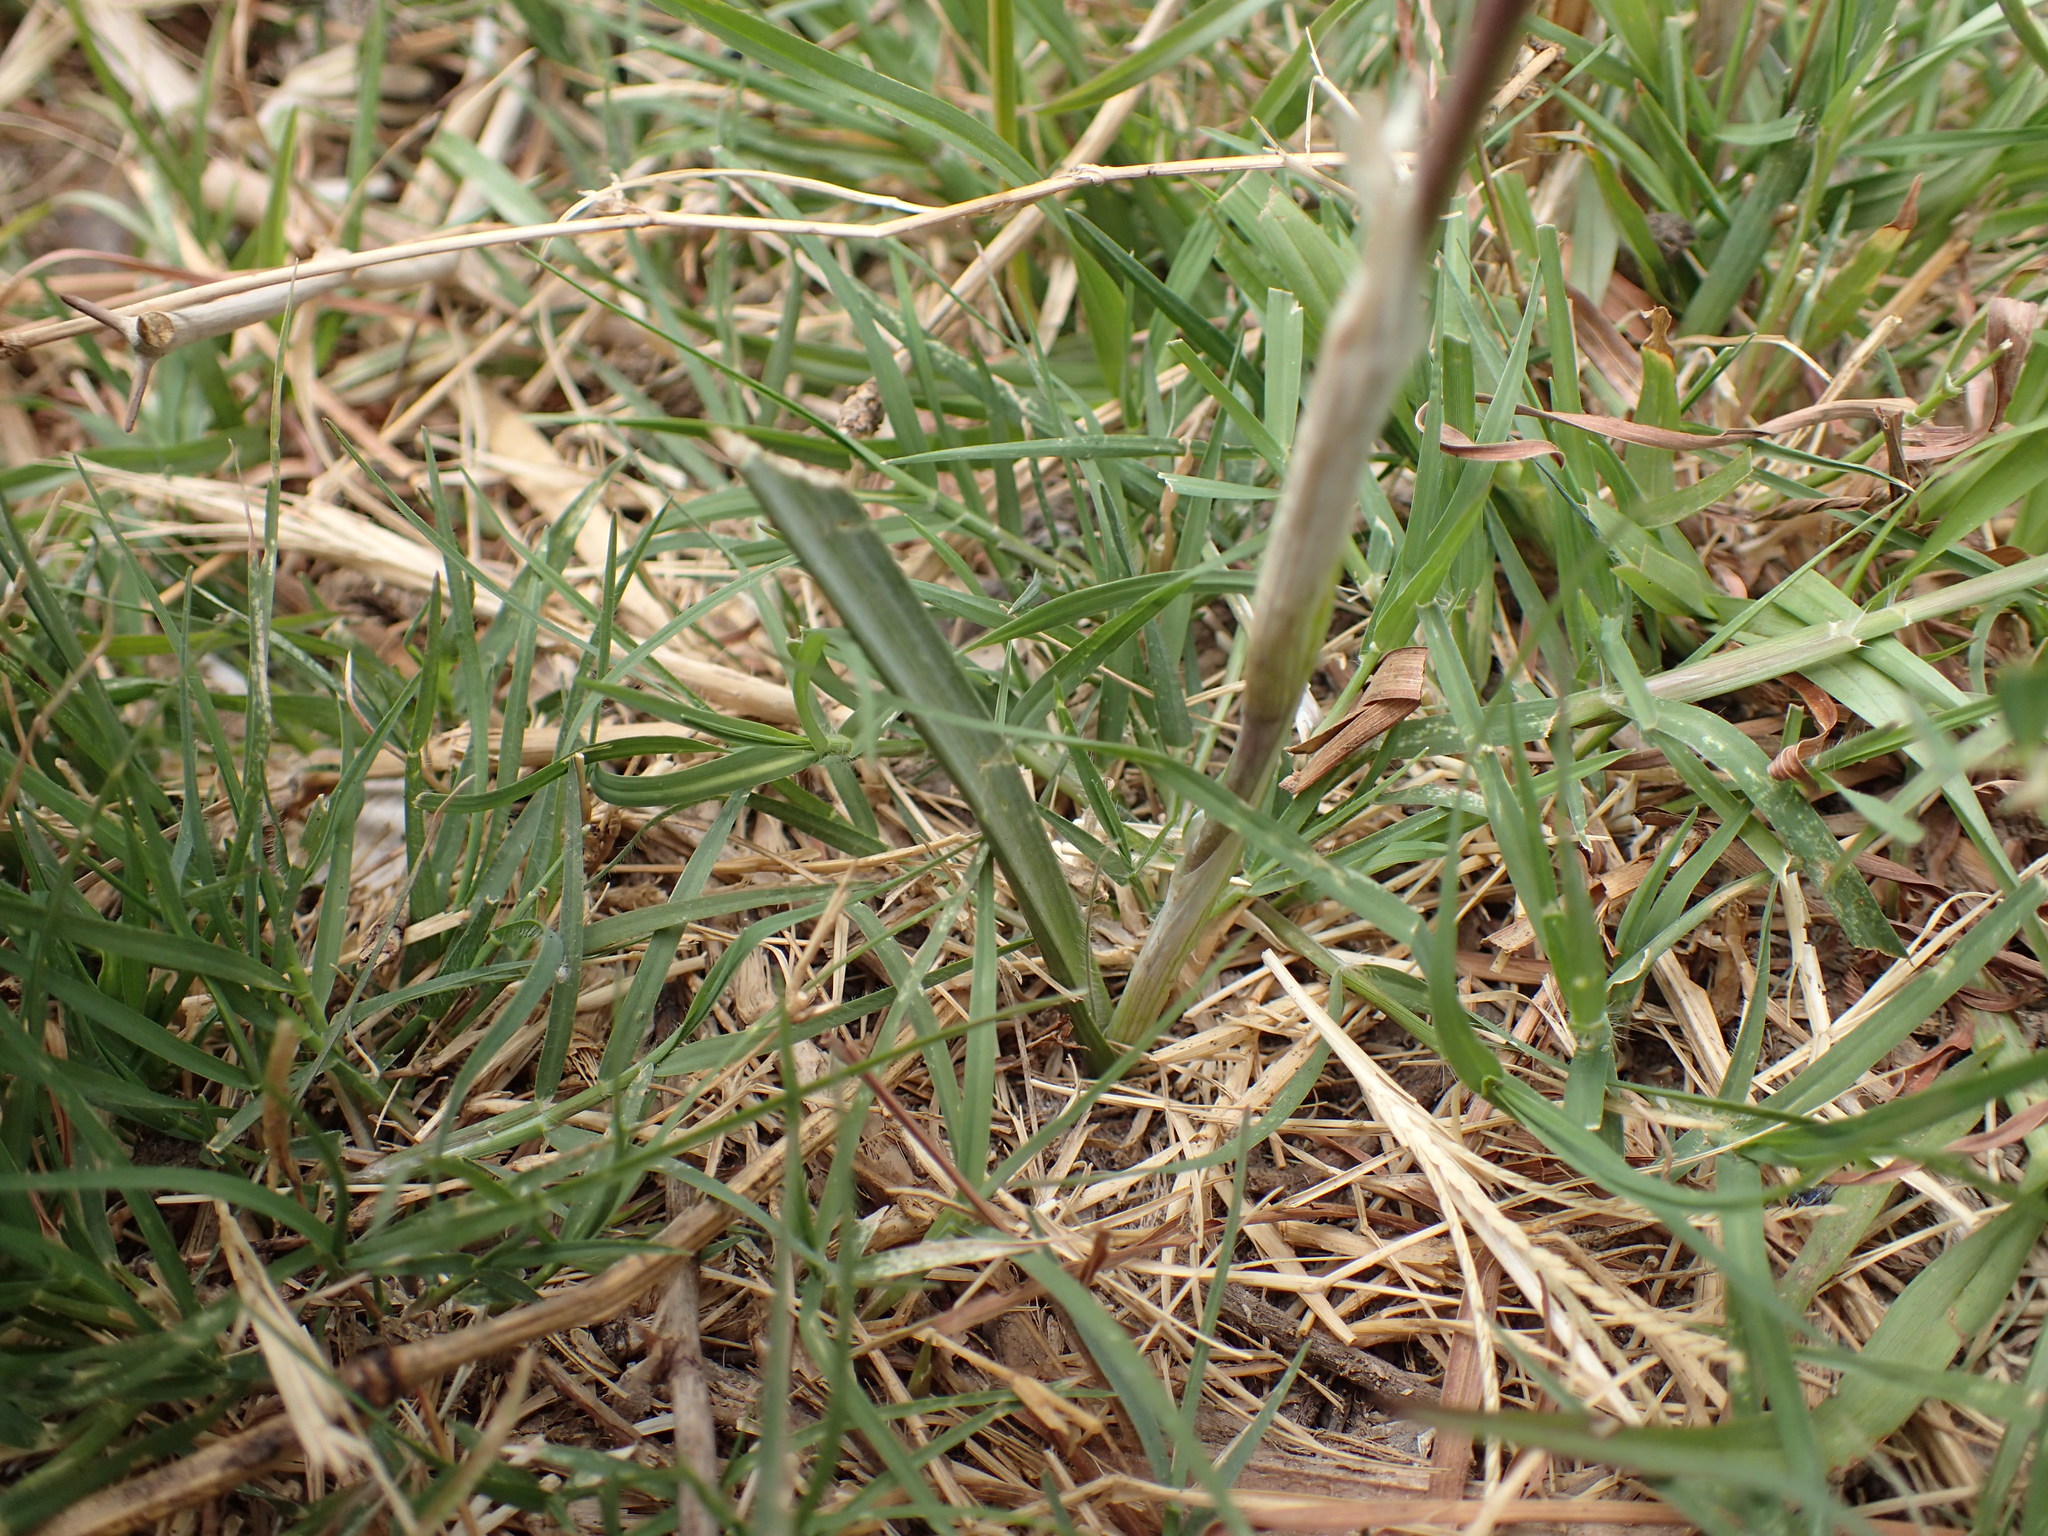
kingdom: Plantae
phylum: Tracheophyta
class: Liliopsida
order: Asparagales
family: Iridaceae
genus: Moraea
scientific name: Moraea simulans
